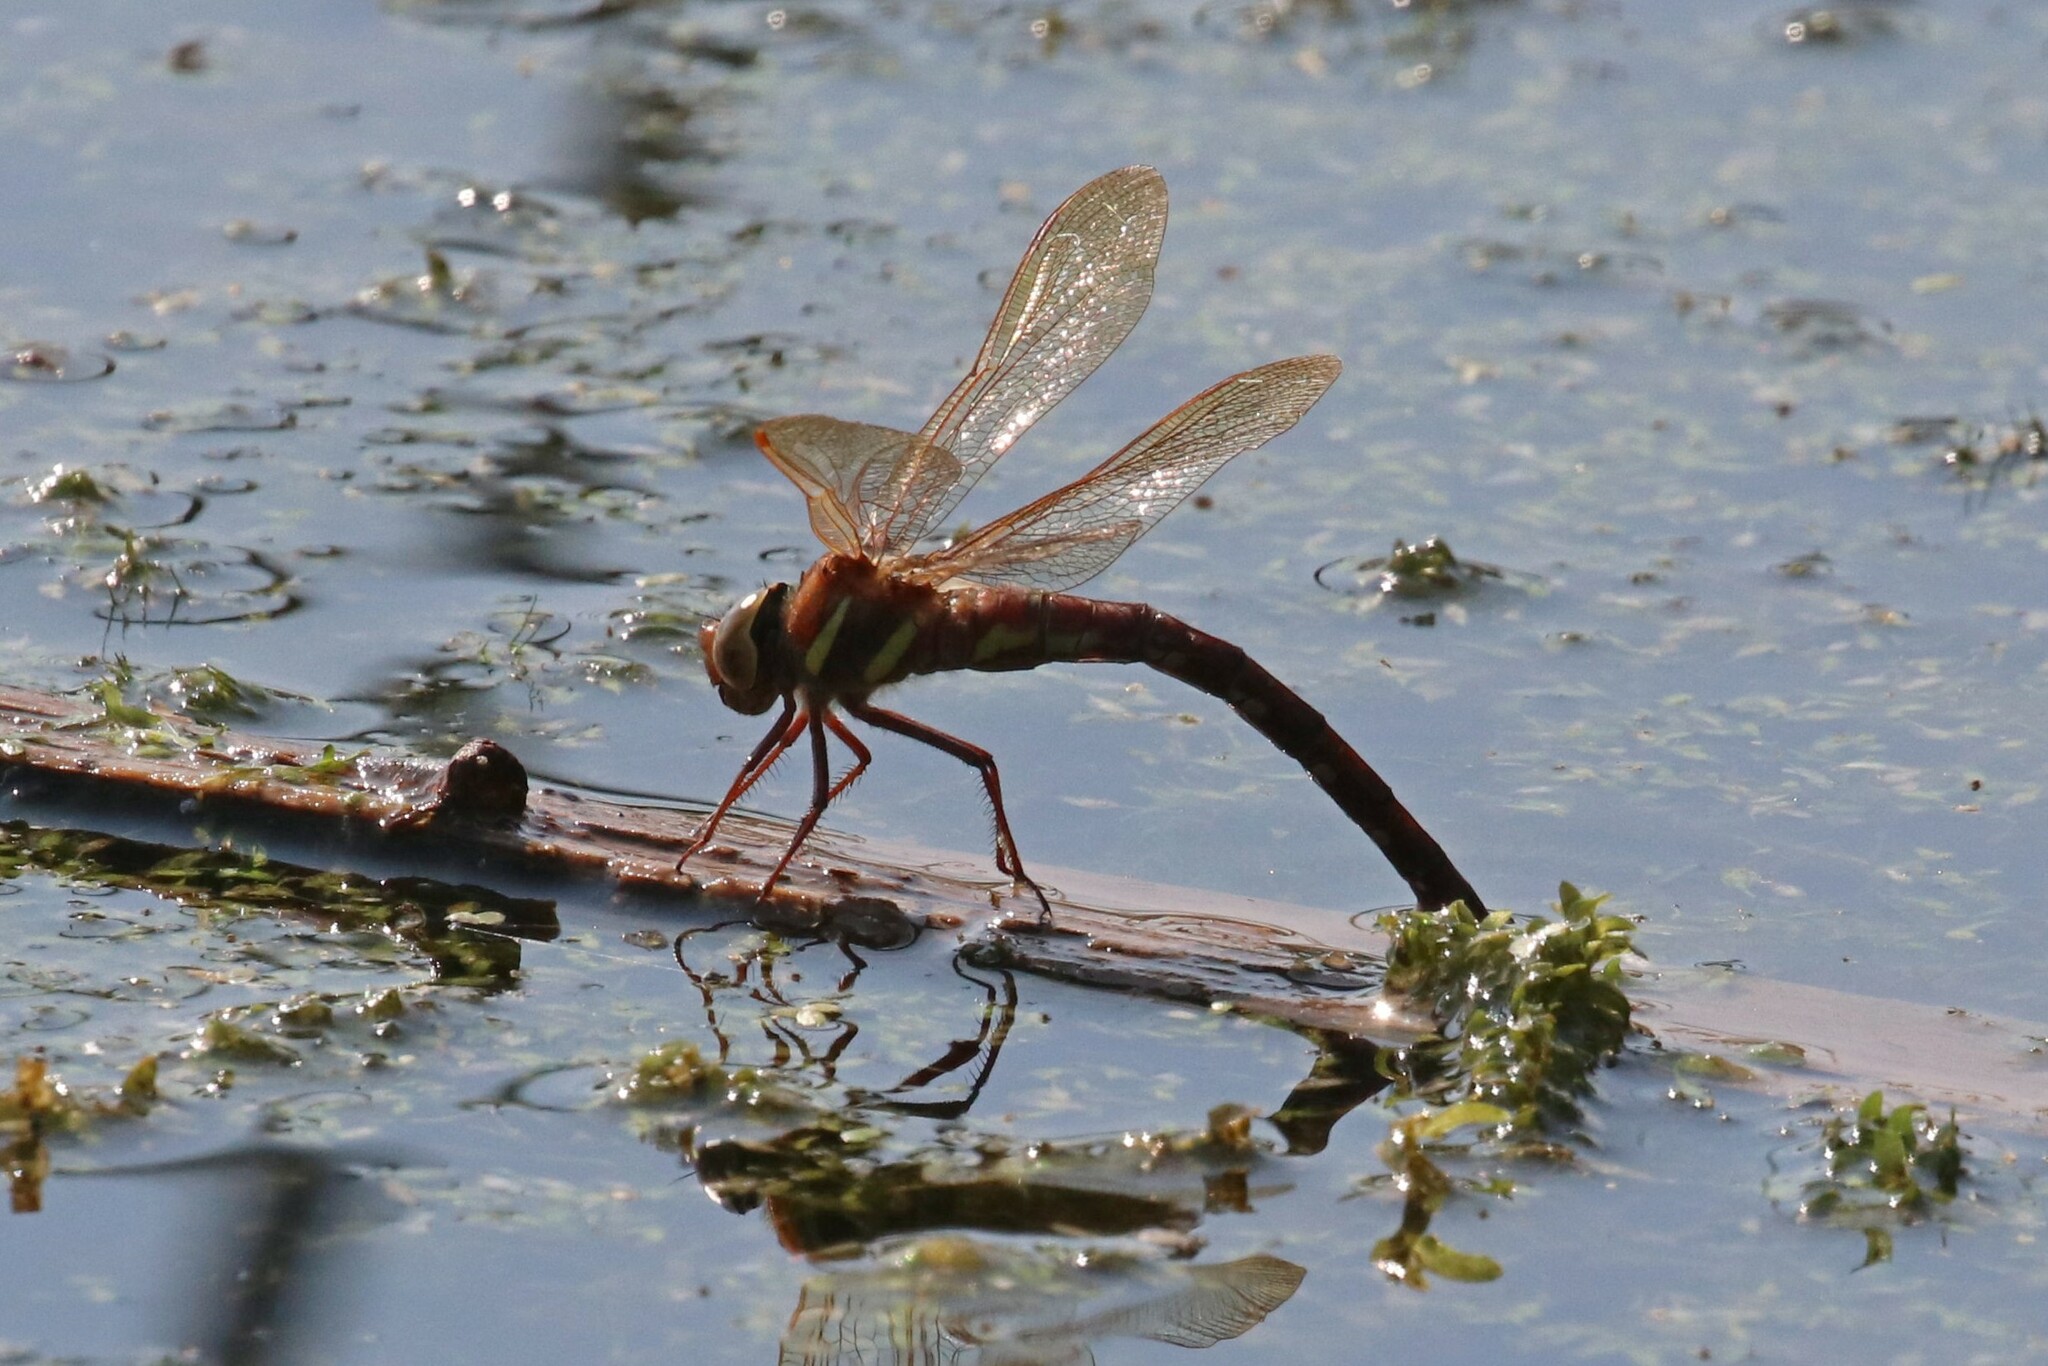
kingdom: Animalia
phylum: Arthropoda
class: Insecta
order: Odonata
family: Aeshnidae
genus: Aeshna
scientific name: Aeshna grandis
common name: Brown hawker
